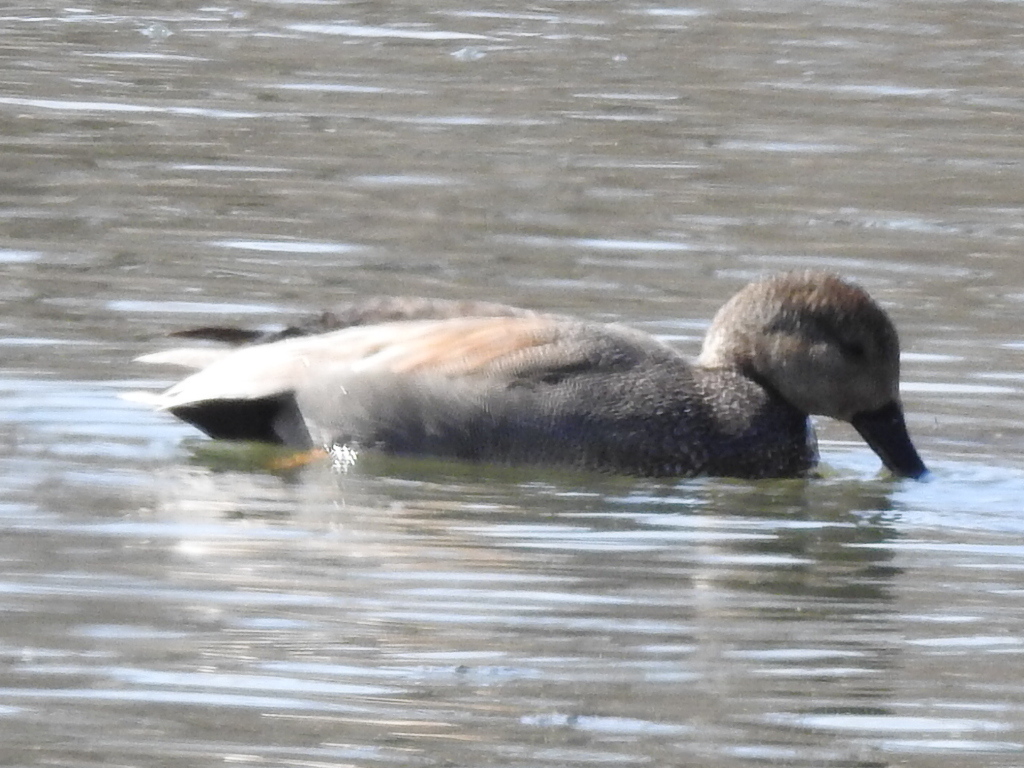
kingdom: Animalia
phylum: Chordata
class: Aves
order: Anseriformes
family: Anatidae
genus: Mareca
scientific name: Mareca strepera
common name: Gadwall
